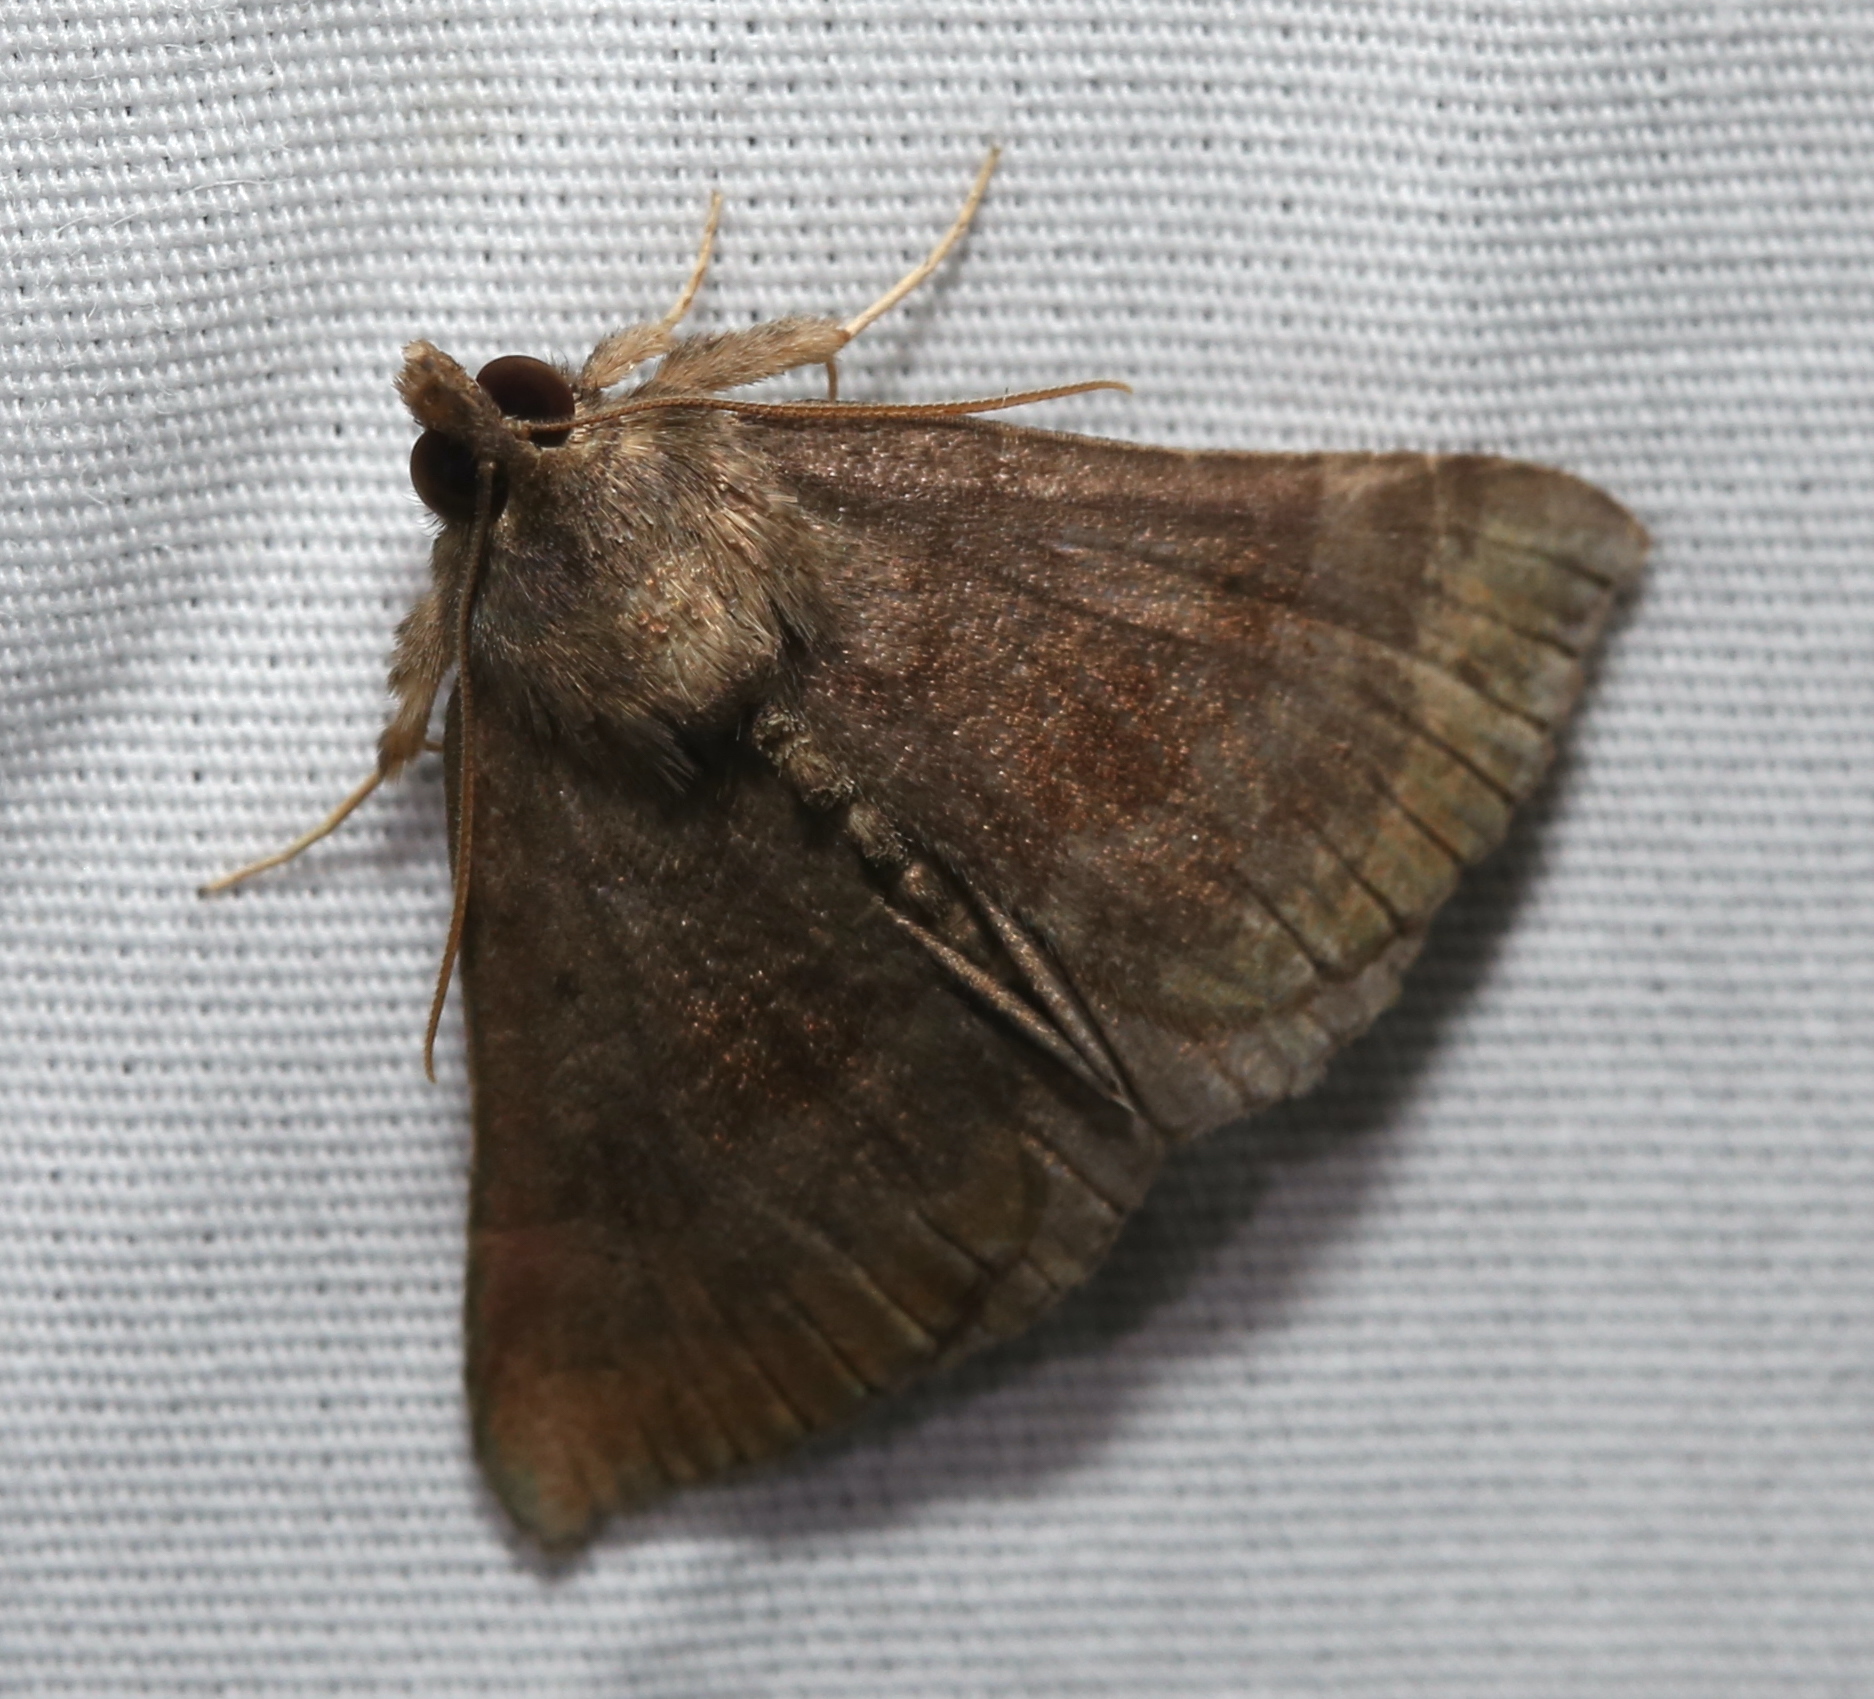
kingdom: Animalia
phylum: Arthropoda
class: Insecta
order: Lepidoptera
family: Erebidae
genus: Hypena
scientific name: Hypena madefactalis
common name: Gray-edged snout
